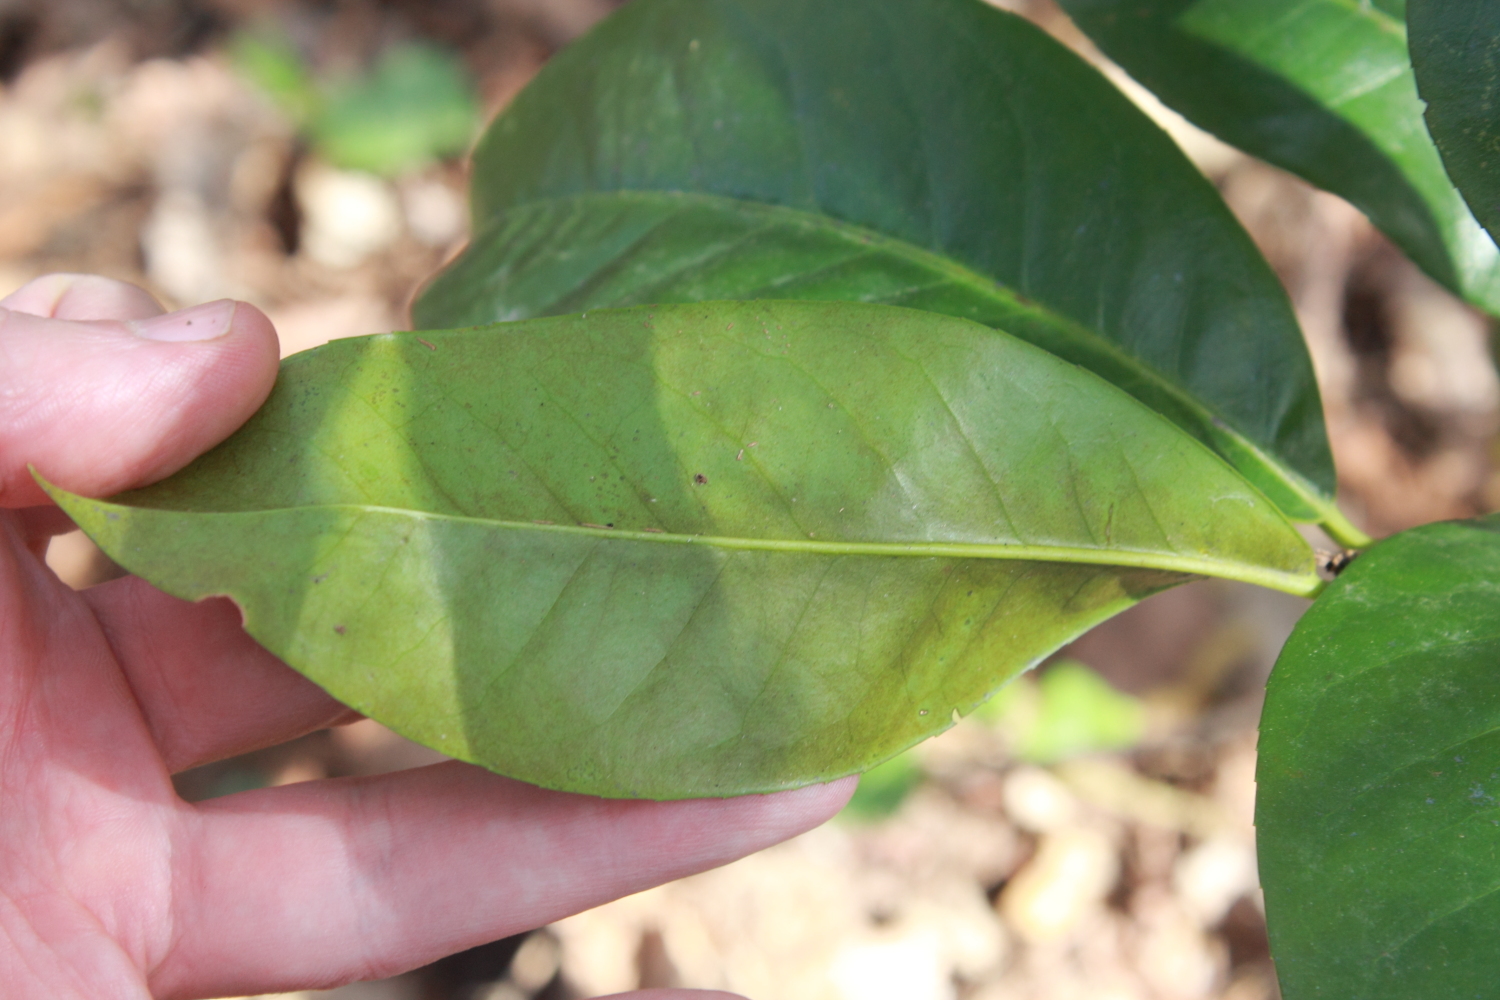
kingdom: Plantae
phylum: Tracheophyta
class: Magnoliopsida
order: Rosales
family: Rosaceae
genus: Prunus
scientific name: Prunus laurocerasus
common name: Cherry laurel
